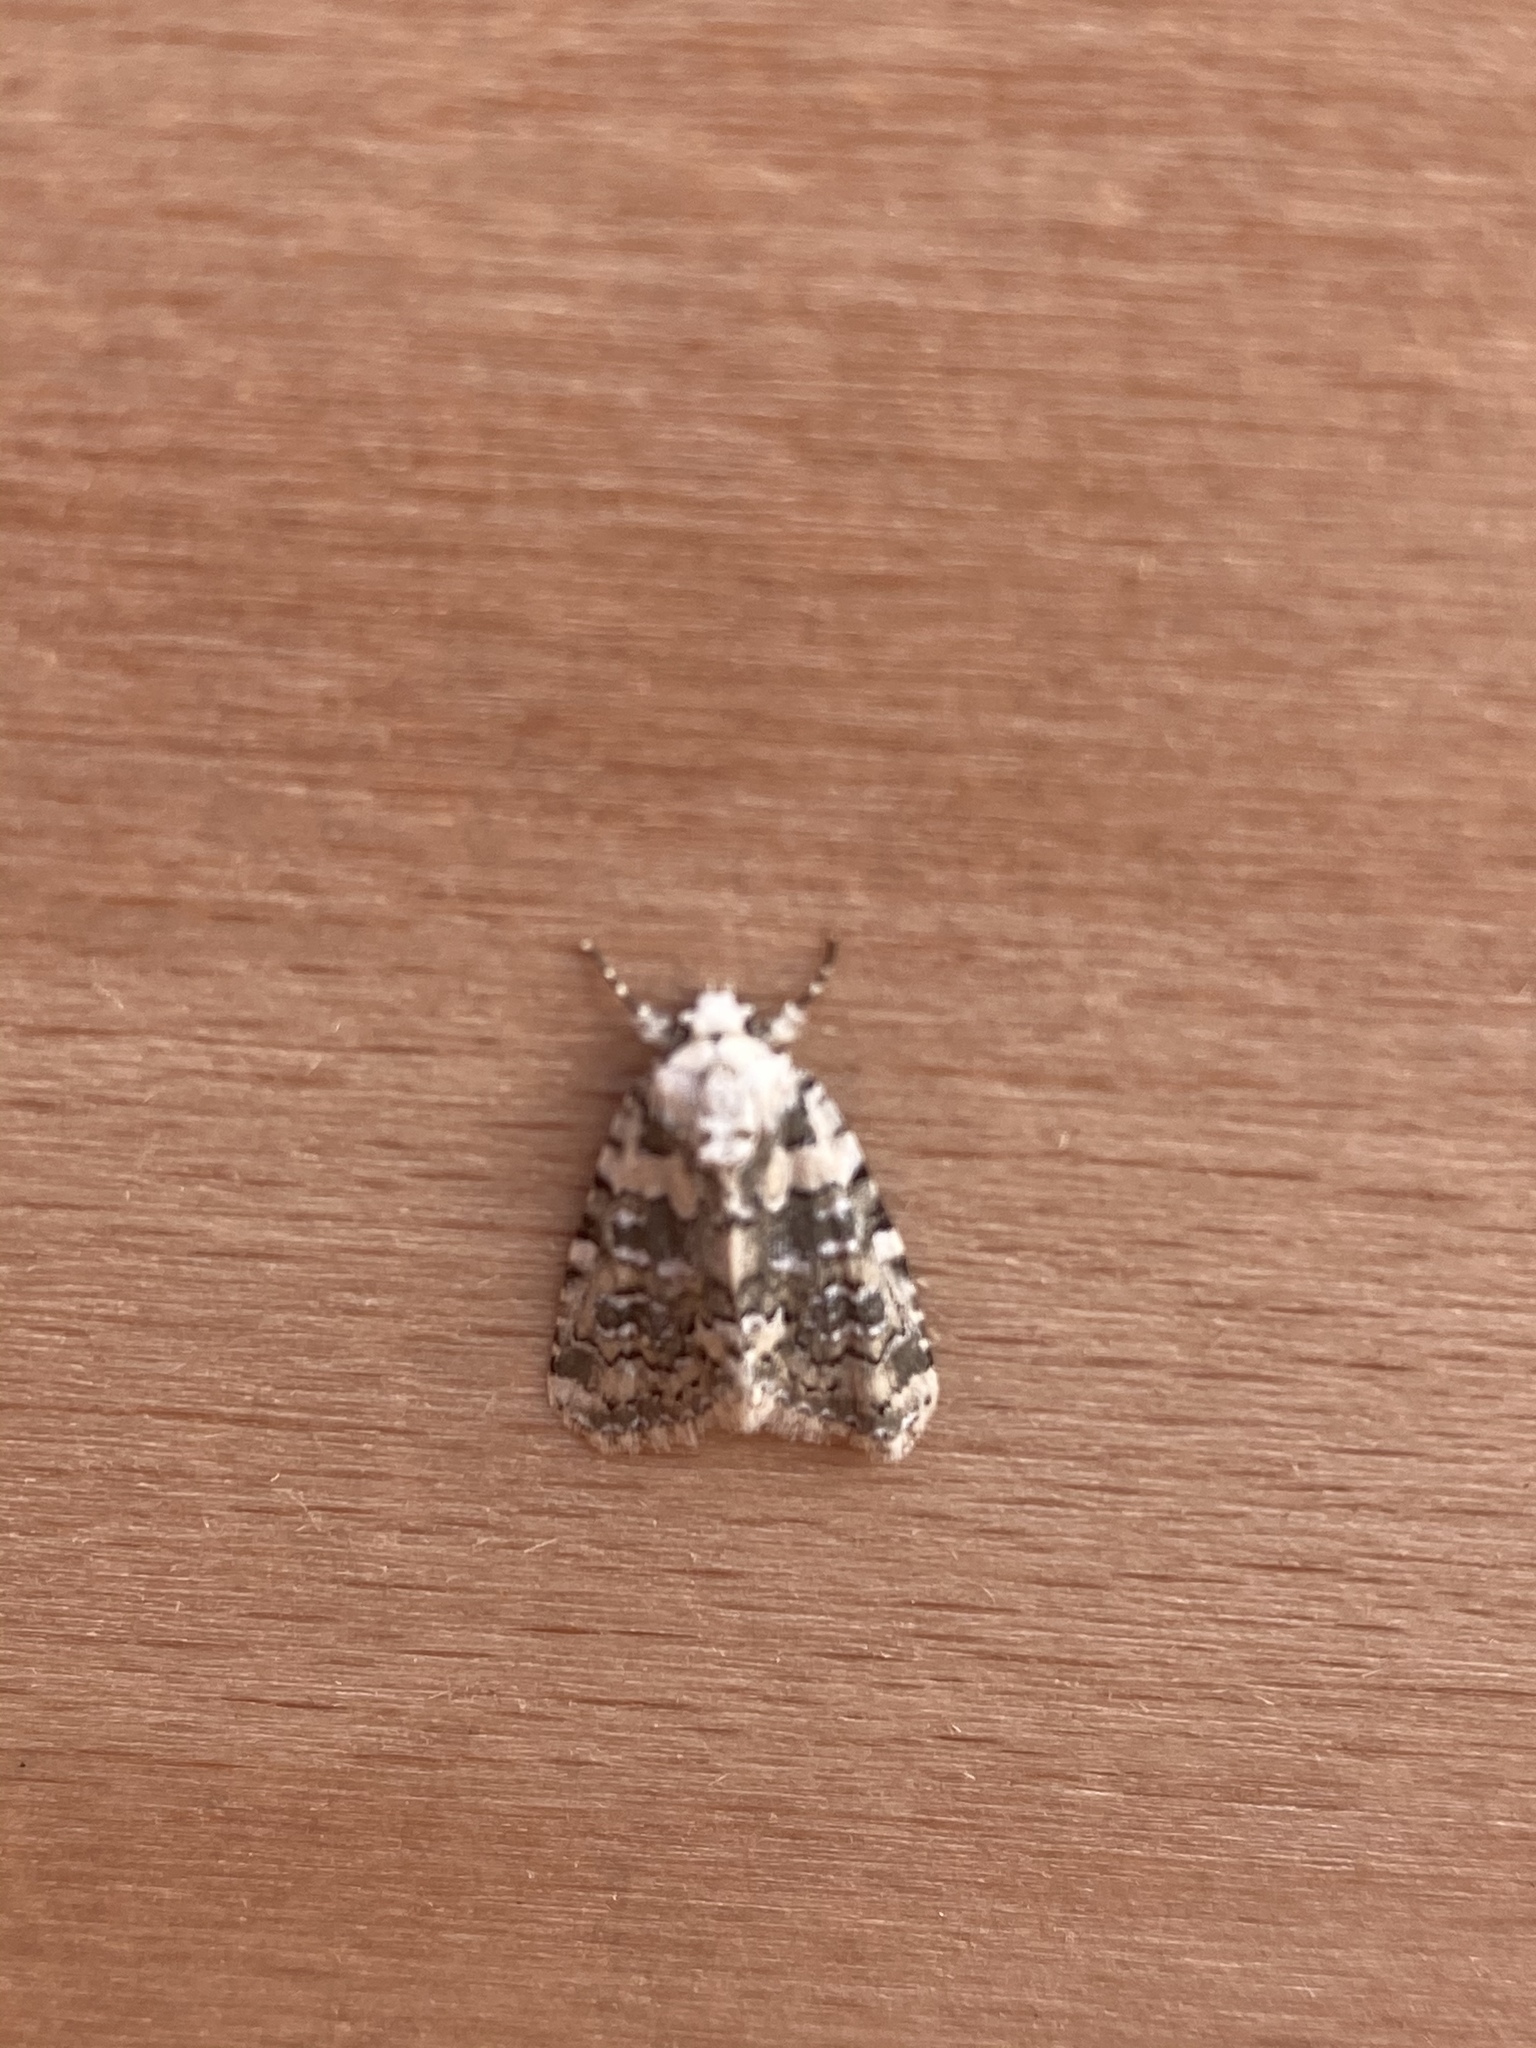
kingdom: Animalia
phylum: Arthropoda
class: Insecta
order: Lepidoptera
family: Noctuidae
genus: Bryophila
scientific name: Bryophila domestica
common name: Marbled beauty
